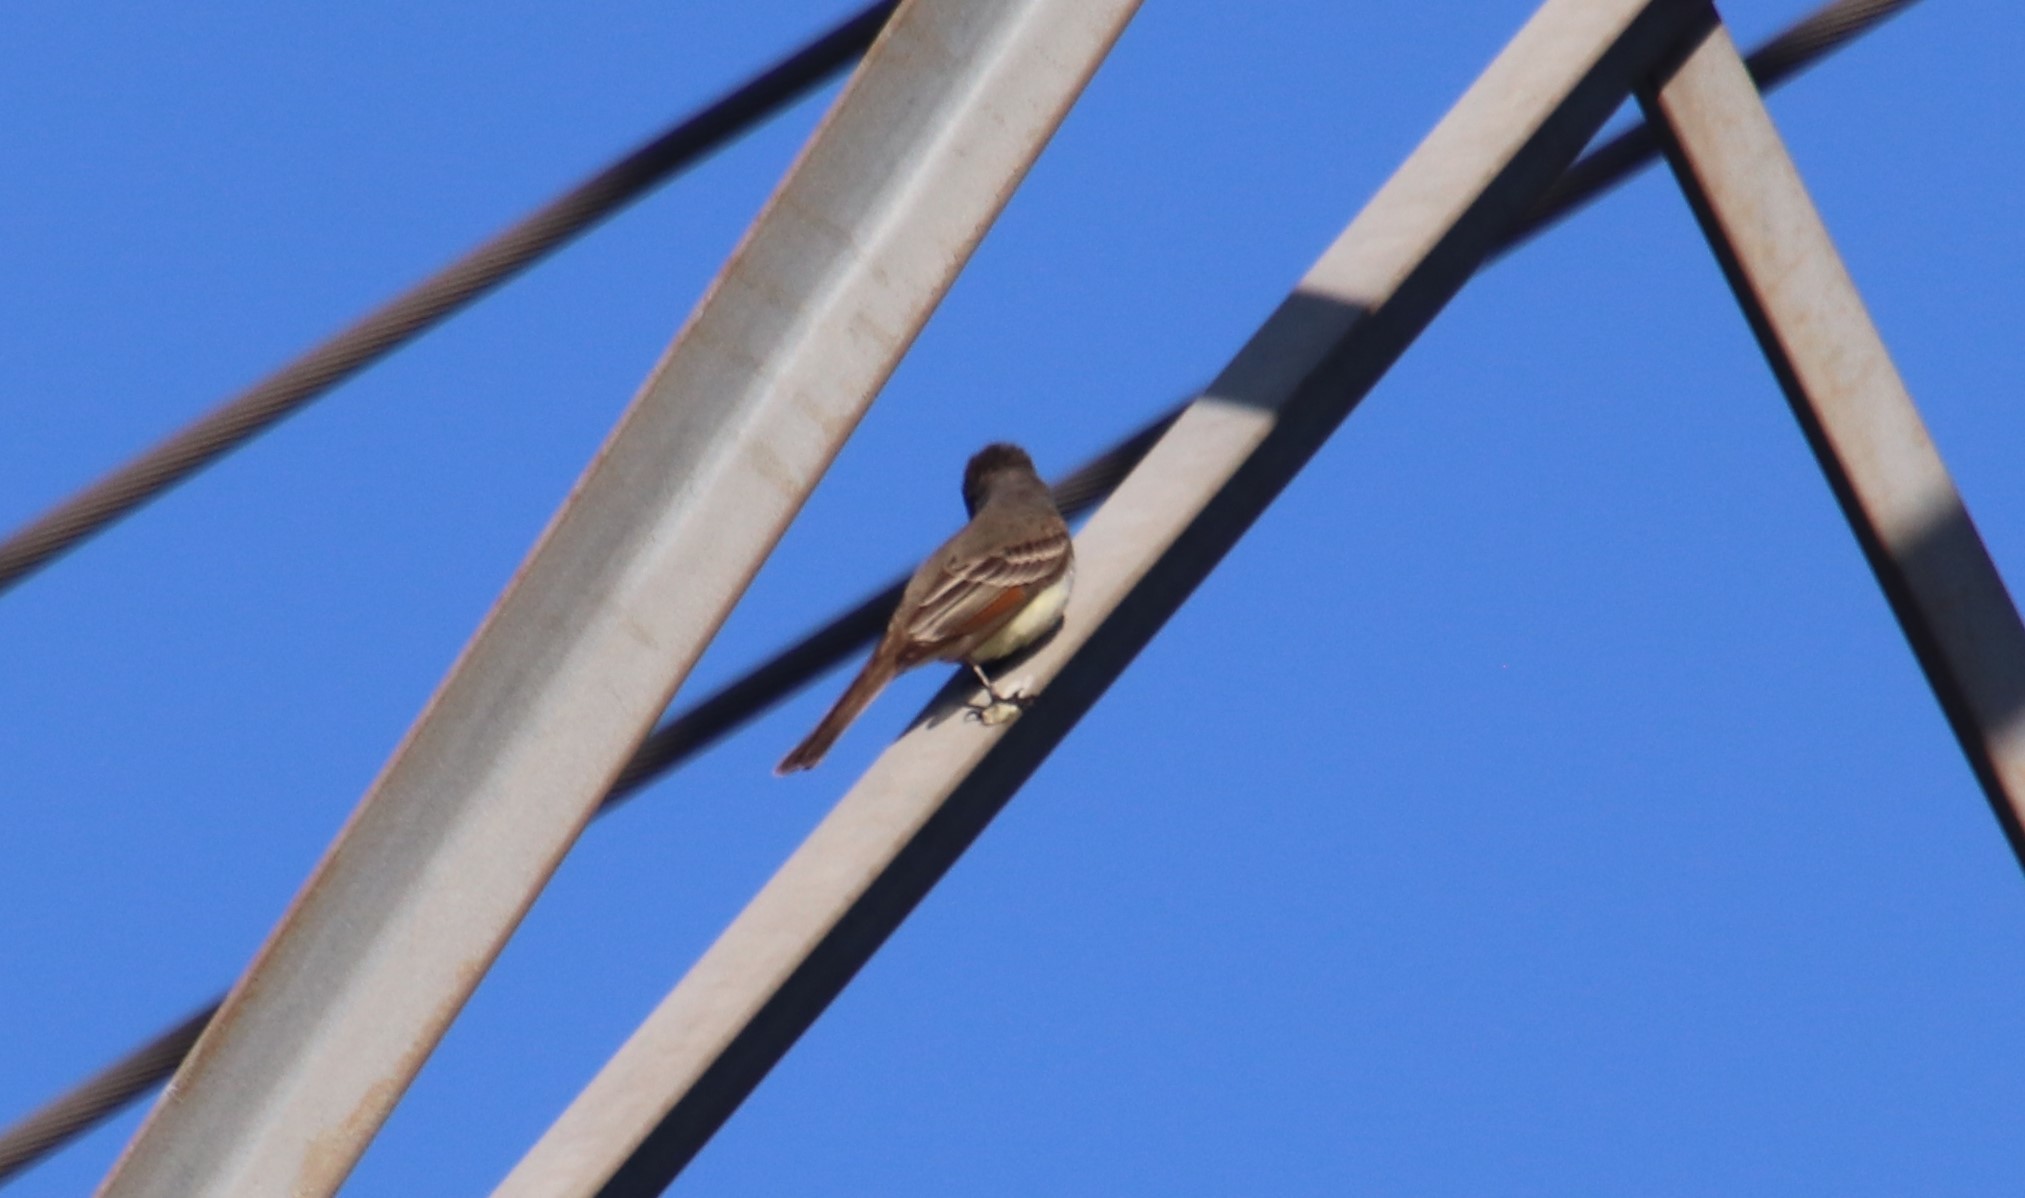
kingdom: Animalia
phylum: Chordata
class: Aves
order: Passeriformes
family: Tyrannidae
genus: Myiarchus
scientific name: Myiarchus cinerascens
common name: Ash-throated flycatcher
